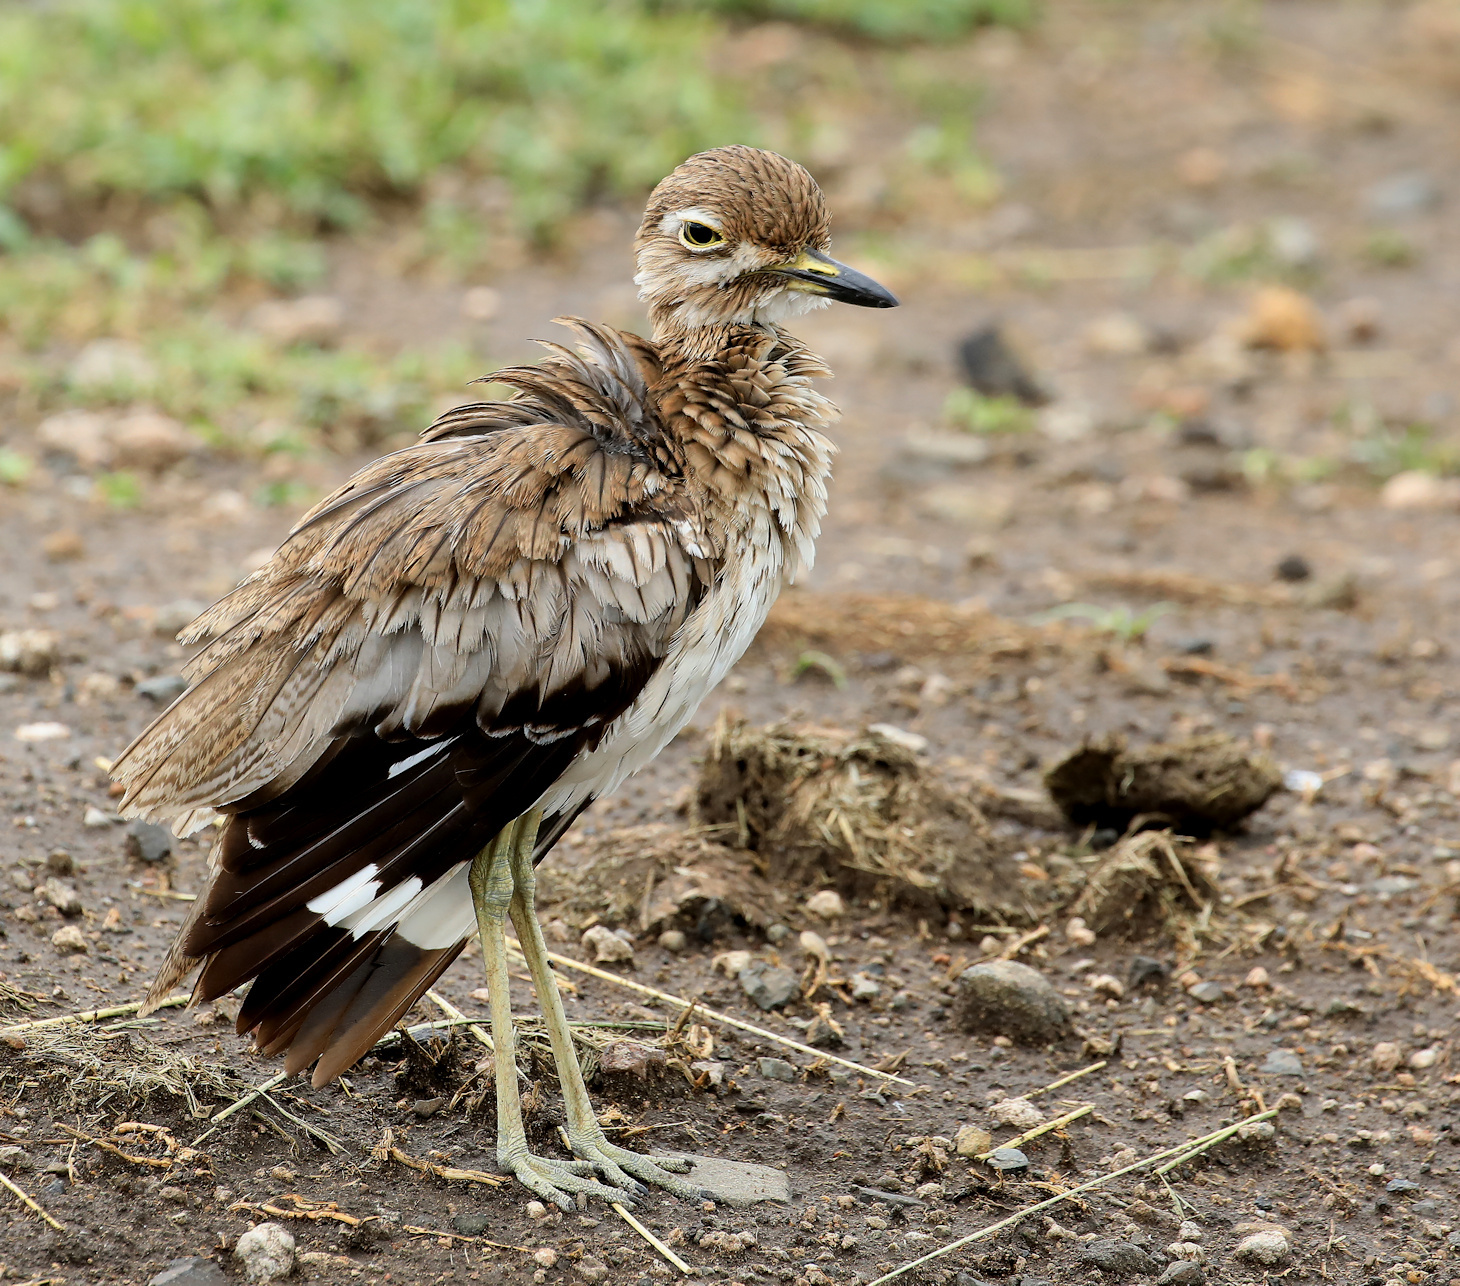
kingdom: Animalia
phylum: Chordata
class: Aves
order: Charadriiformes
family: Burhinidae
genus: Burhinus
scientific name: Burhinus vermiculatus
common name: Water thick-knee
